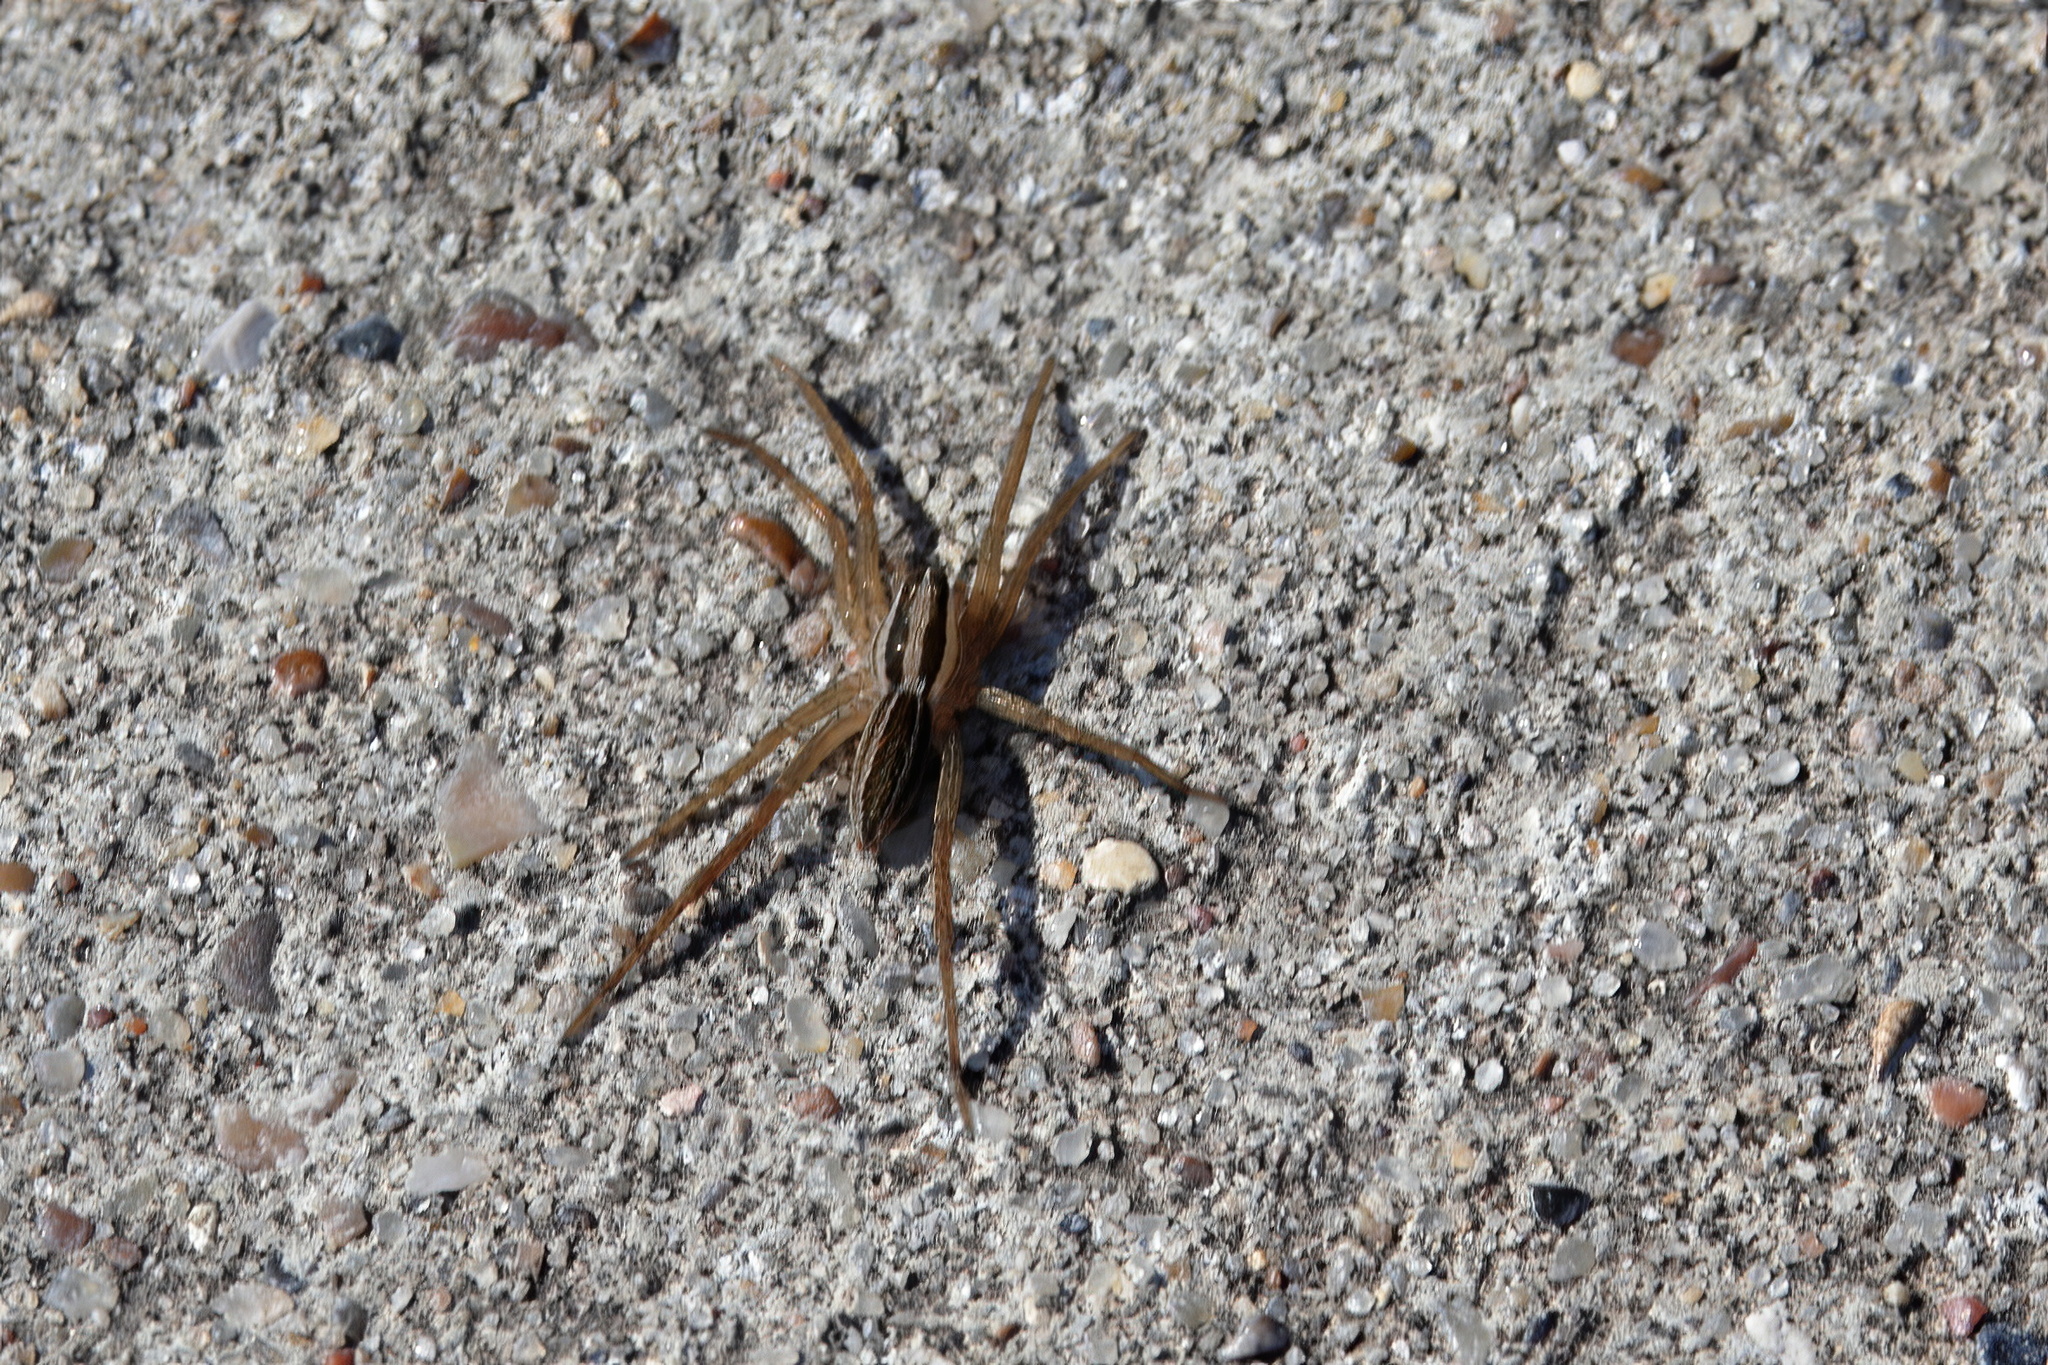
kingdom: Animalia
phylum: Arthropoda
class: Arachnida
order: Araneae
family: Lycosidae
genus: Rabidosa
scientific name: Rabidosa rabida
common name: Rabid wolf spider
